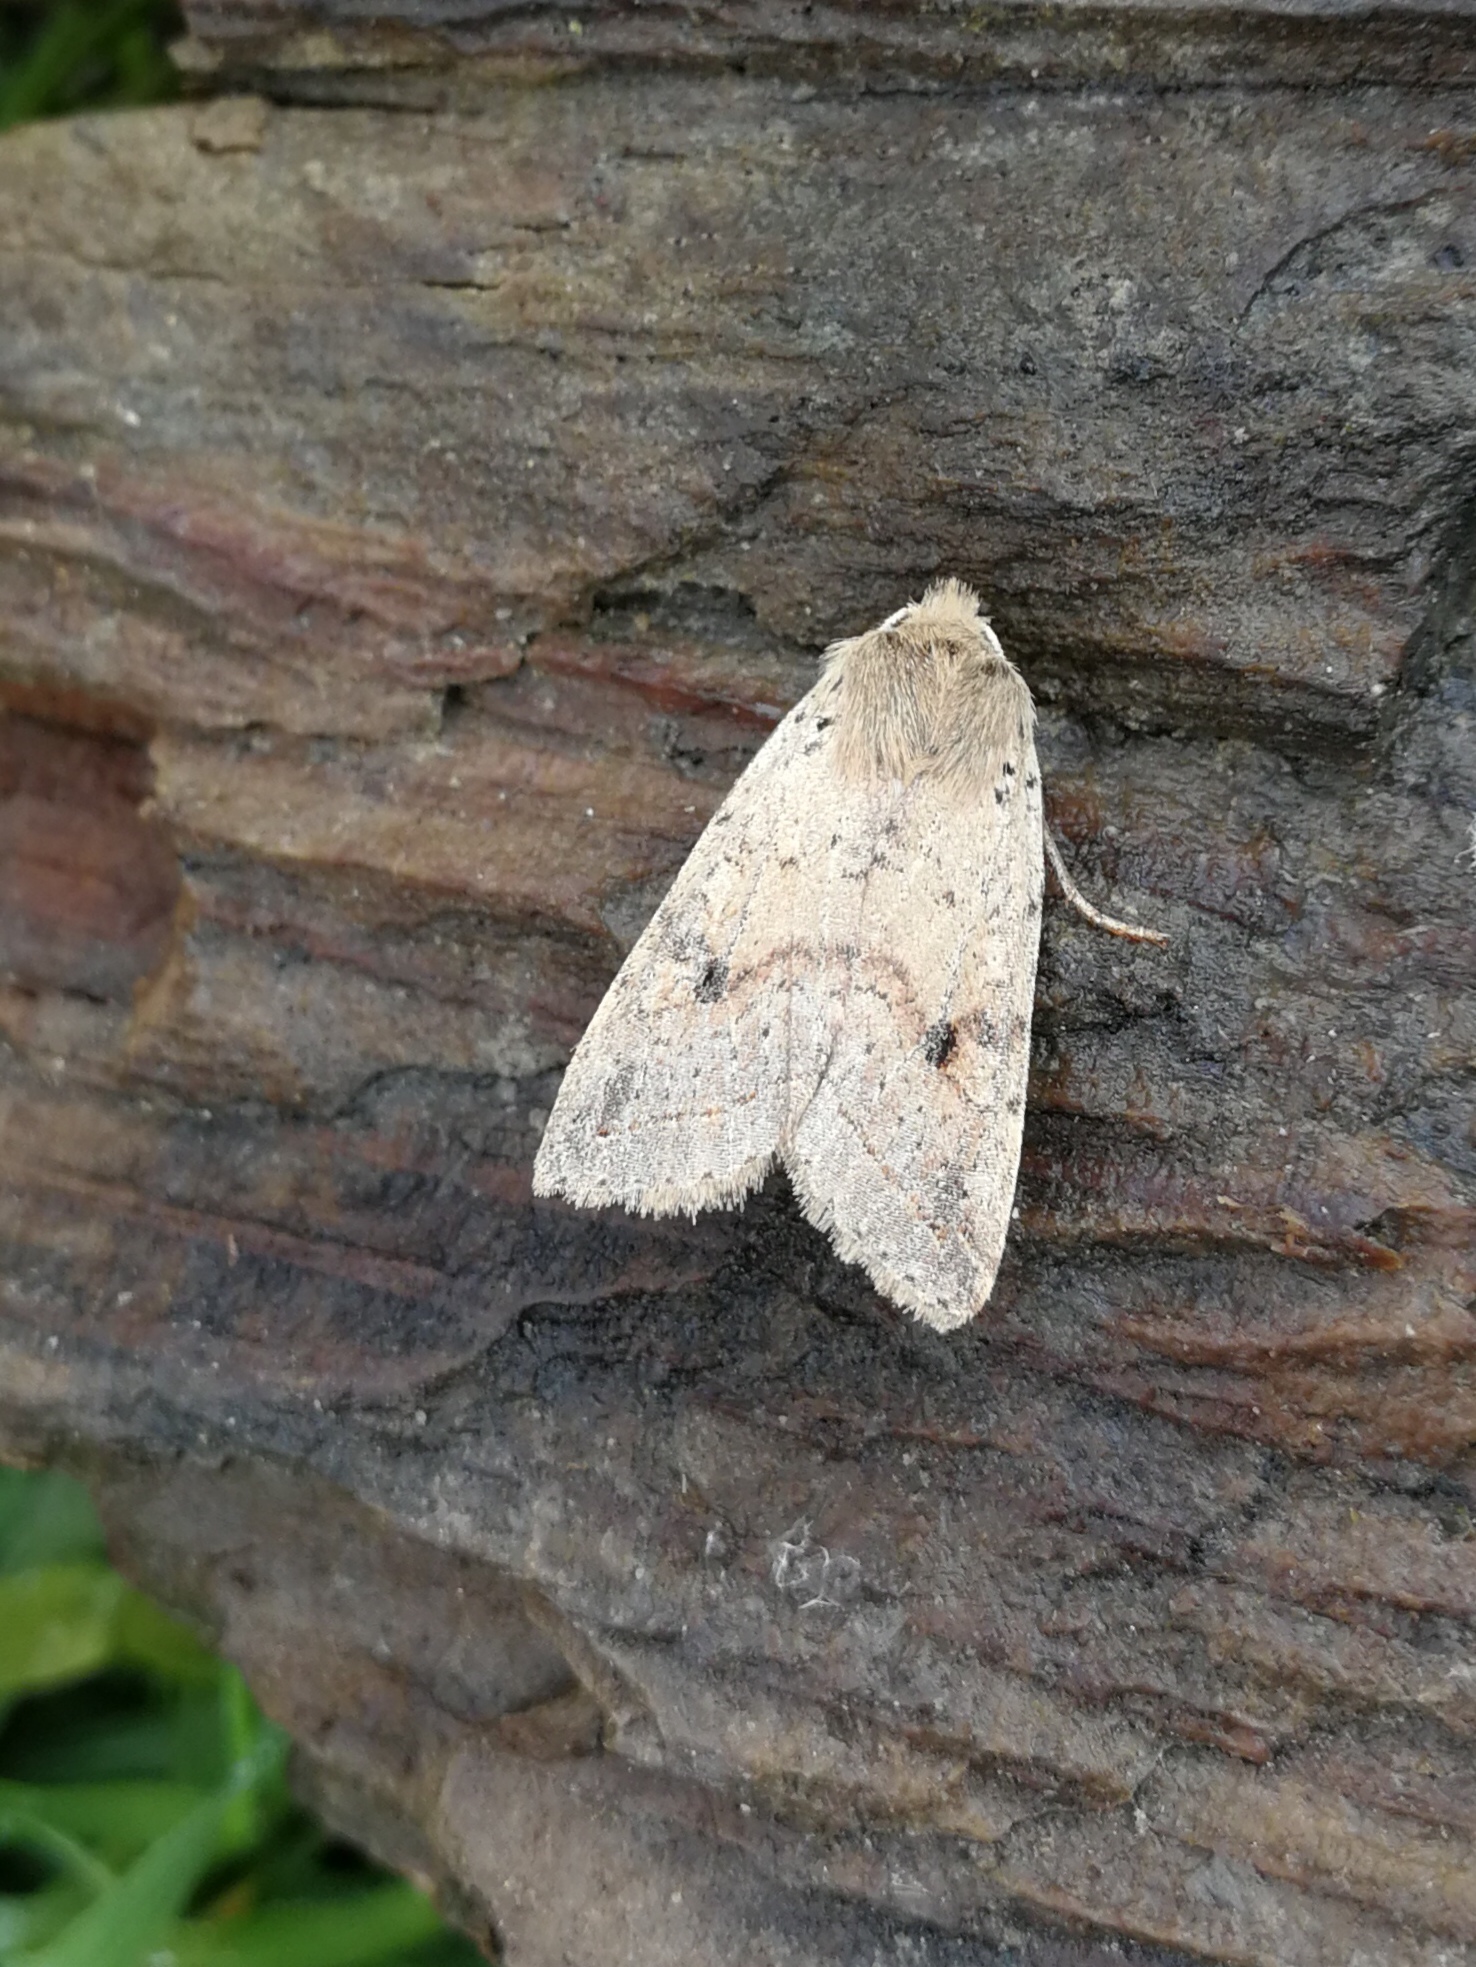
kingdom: Animalia
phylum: Arthropoda
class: Insecta
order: Lepidoptera
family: Noctuidae
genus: Agrochola
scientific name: Agrochola blidaensis
